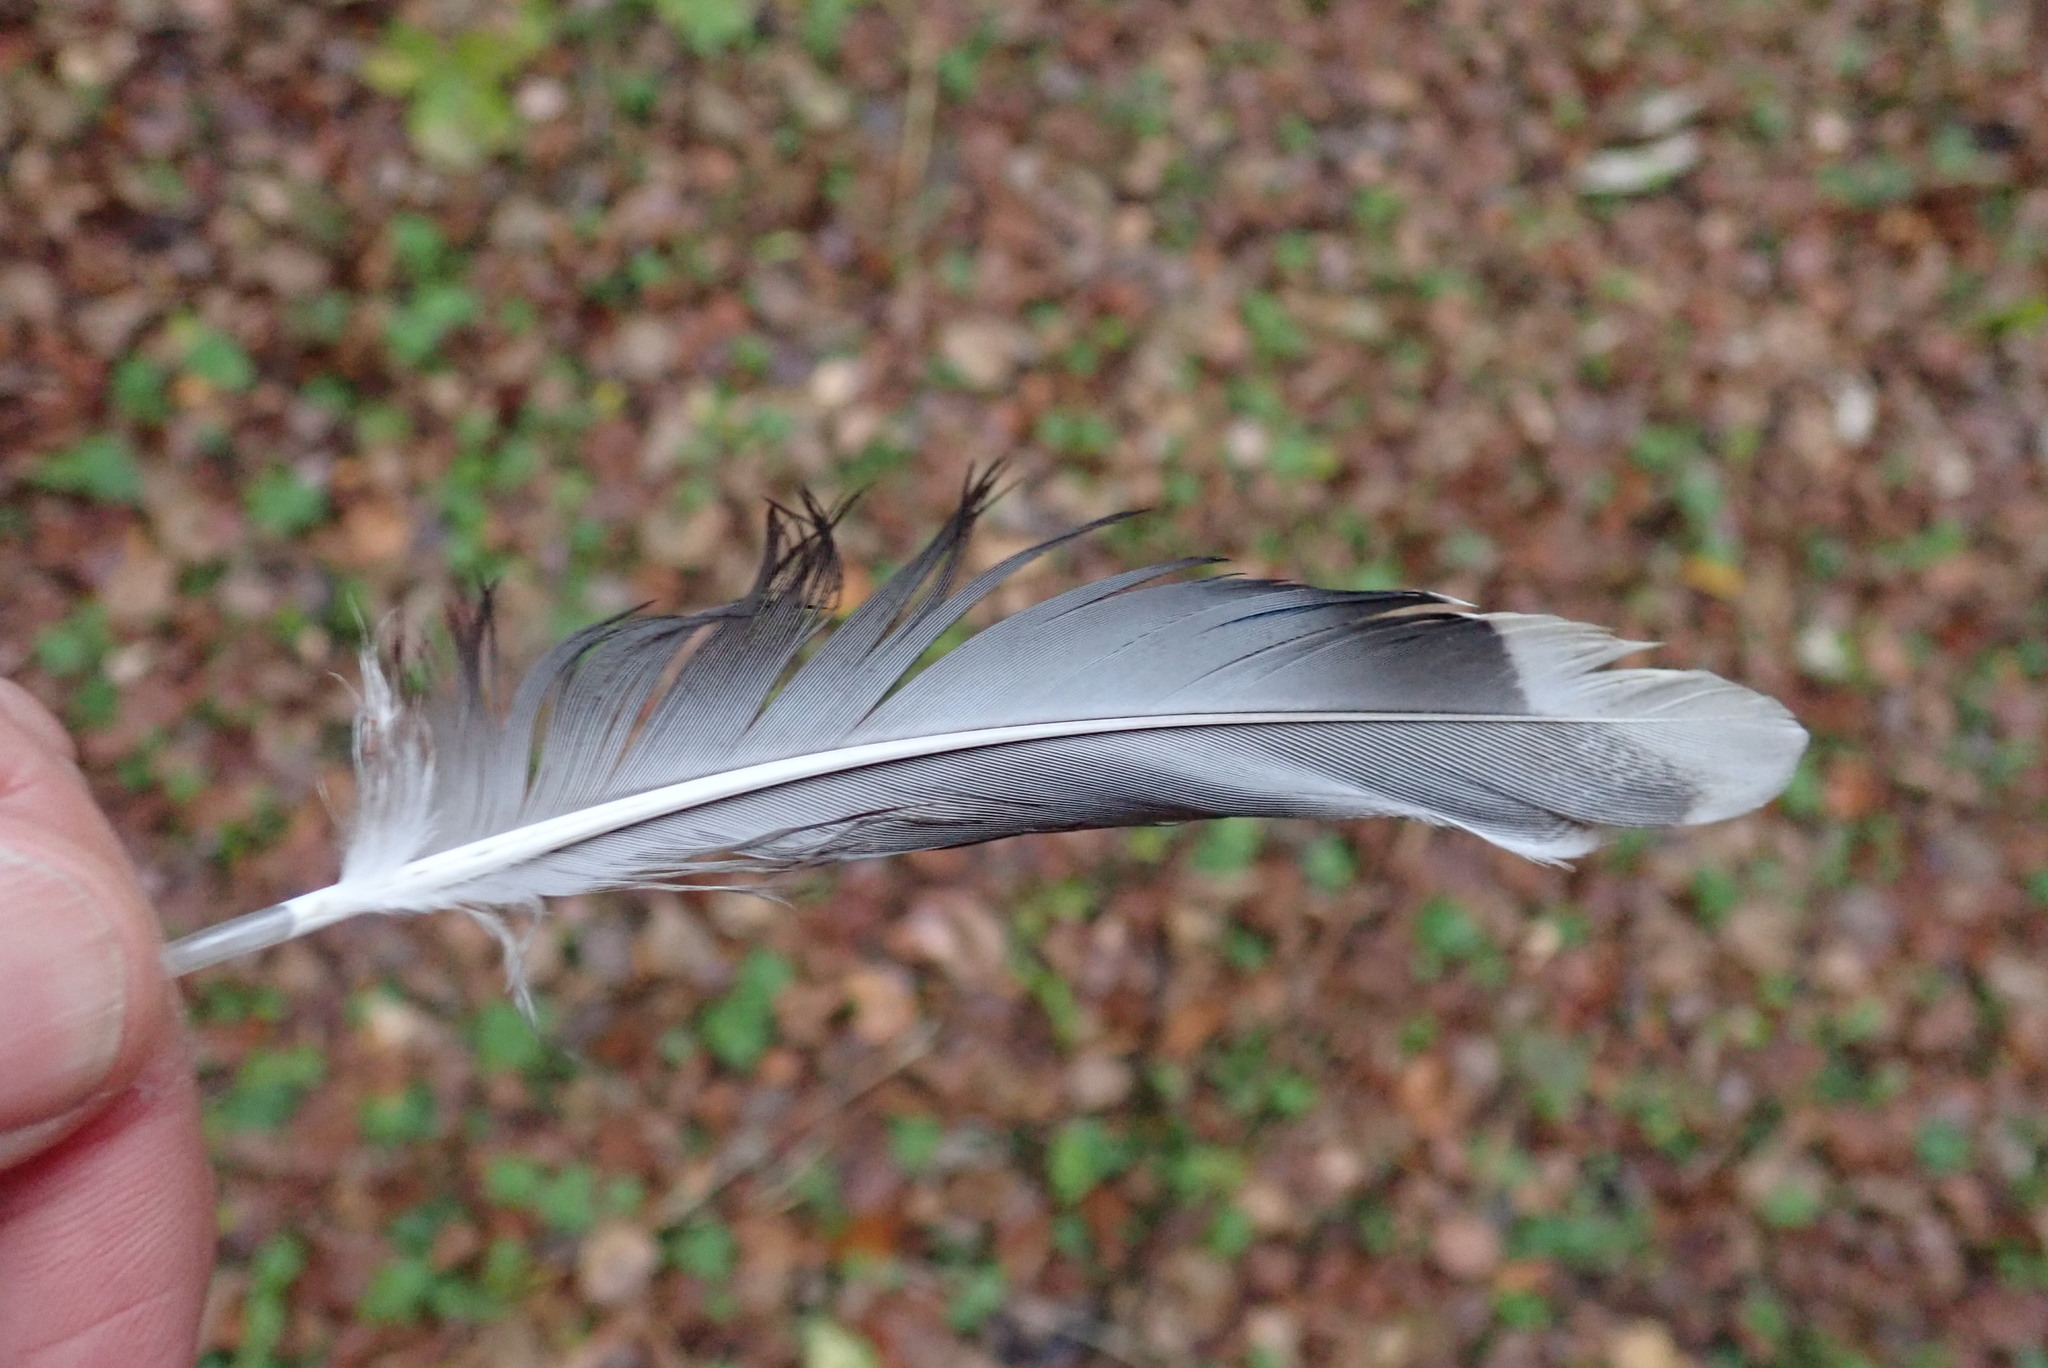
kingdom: Animalia
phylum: Chordata
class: Aves
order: Anseriformes
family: Anatidae
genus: Anas
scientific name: Anas platyrhynchos
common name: Mallard
